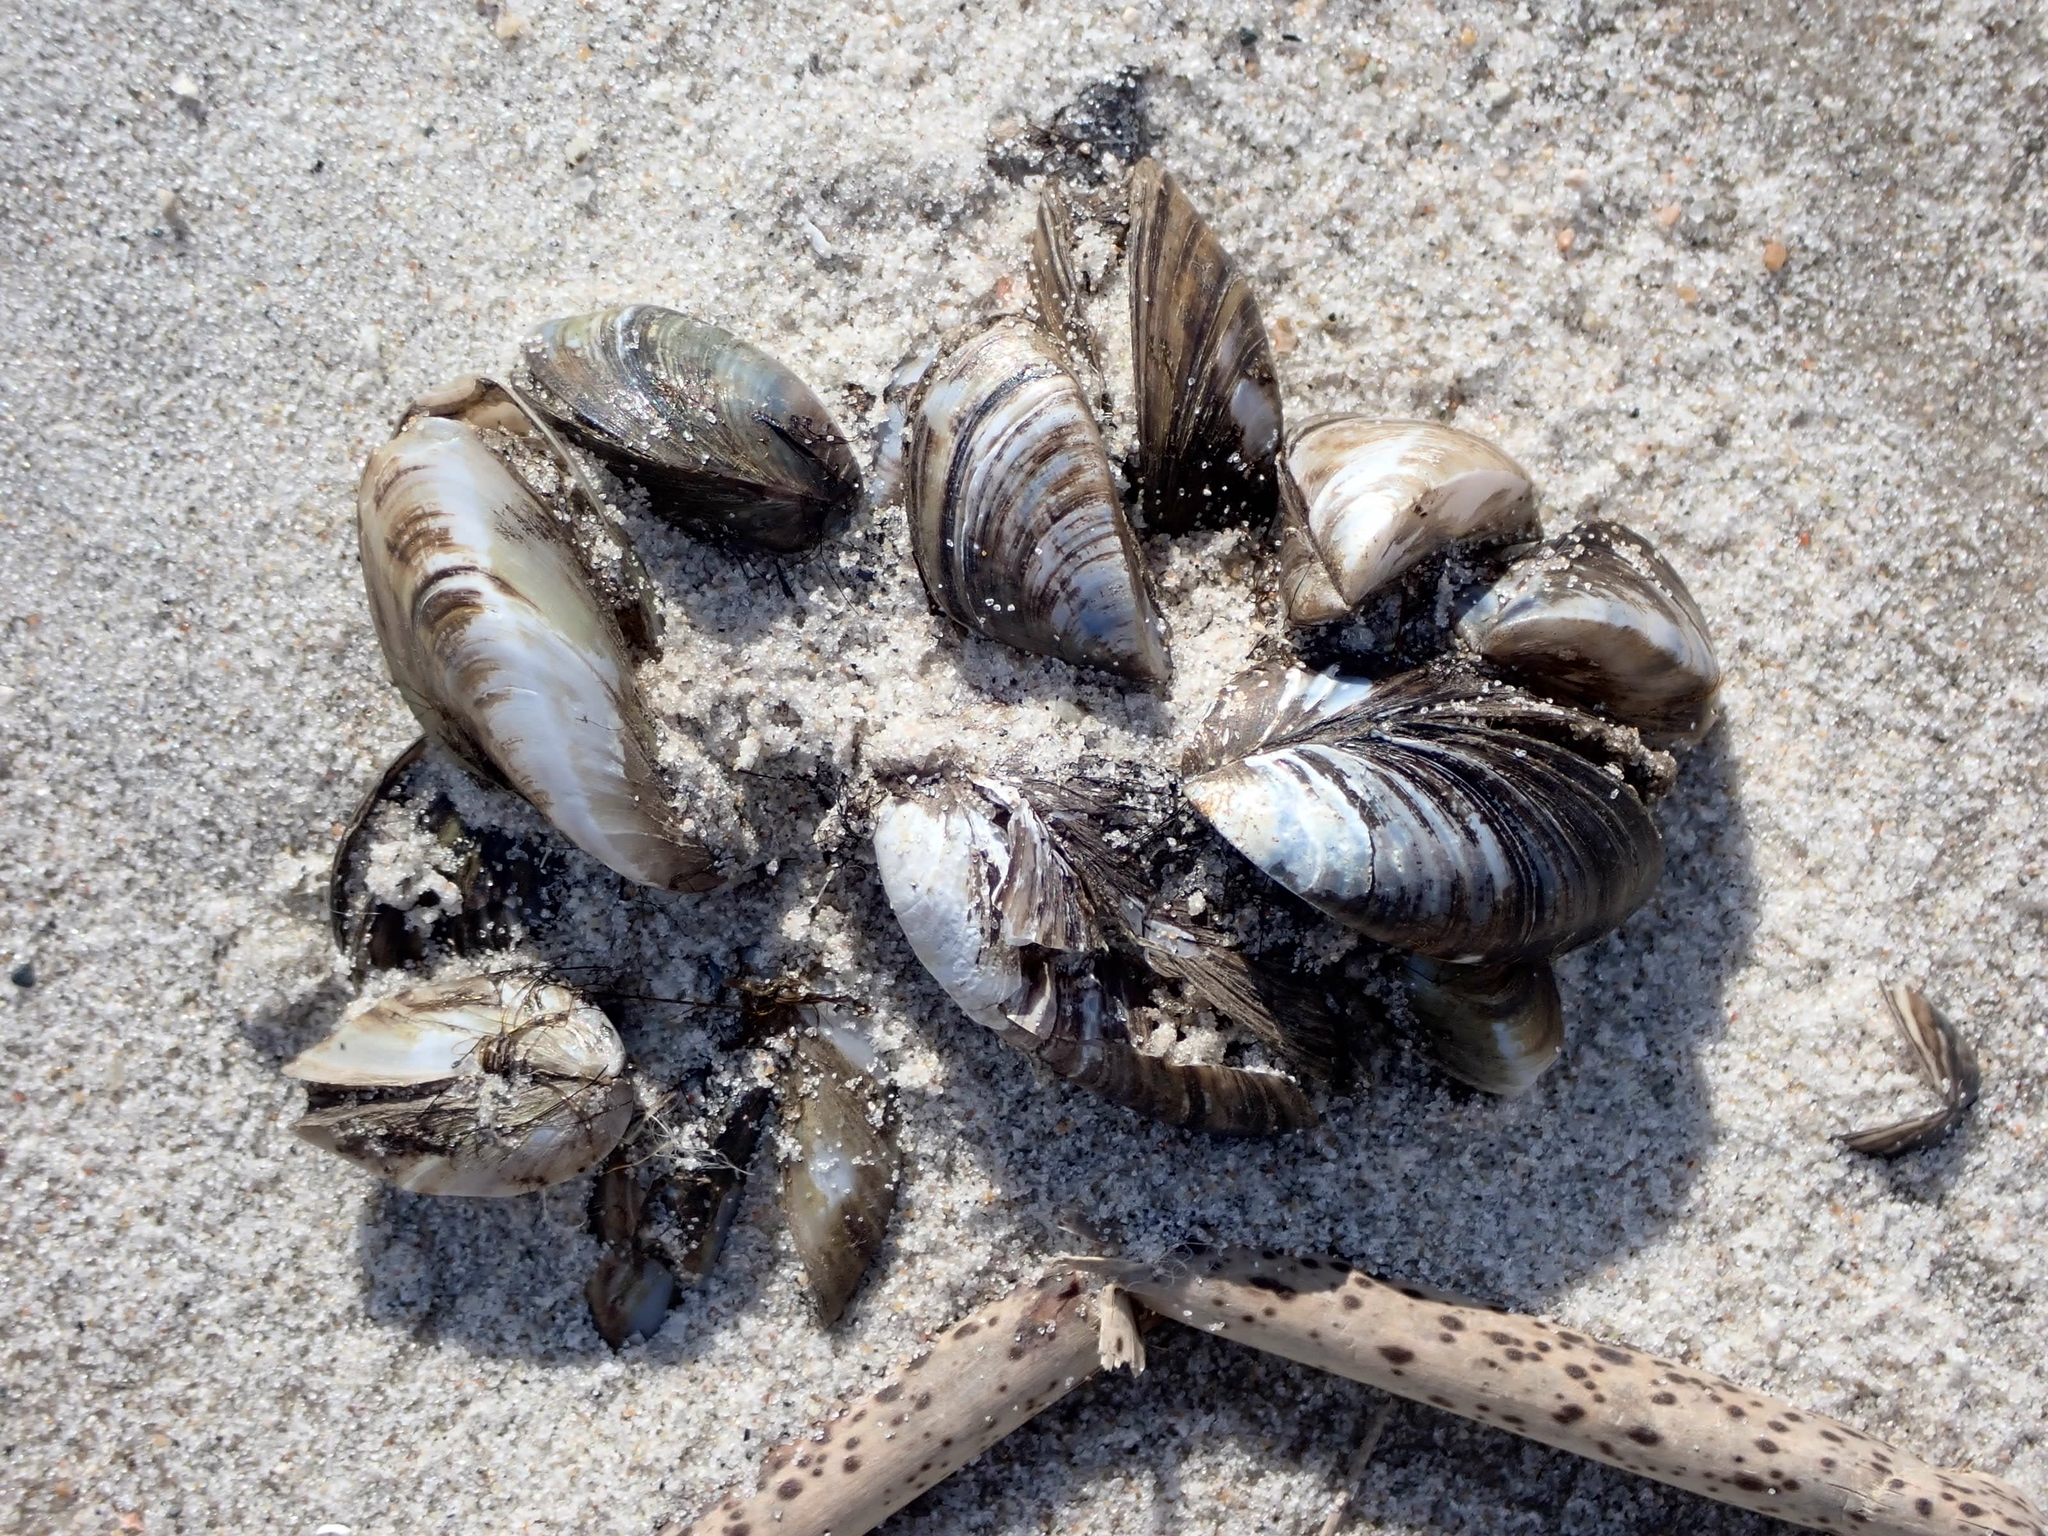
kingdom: Animalia
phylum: Mollusca
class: Bivalvia
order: Myida
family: Dreissenidae
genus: Dreissena
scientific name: Dreissena polymorpha
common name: Zebra mussel
